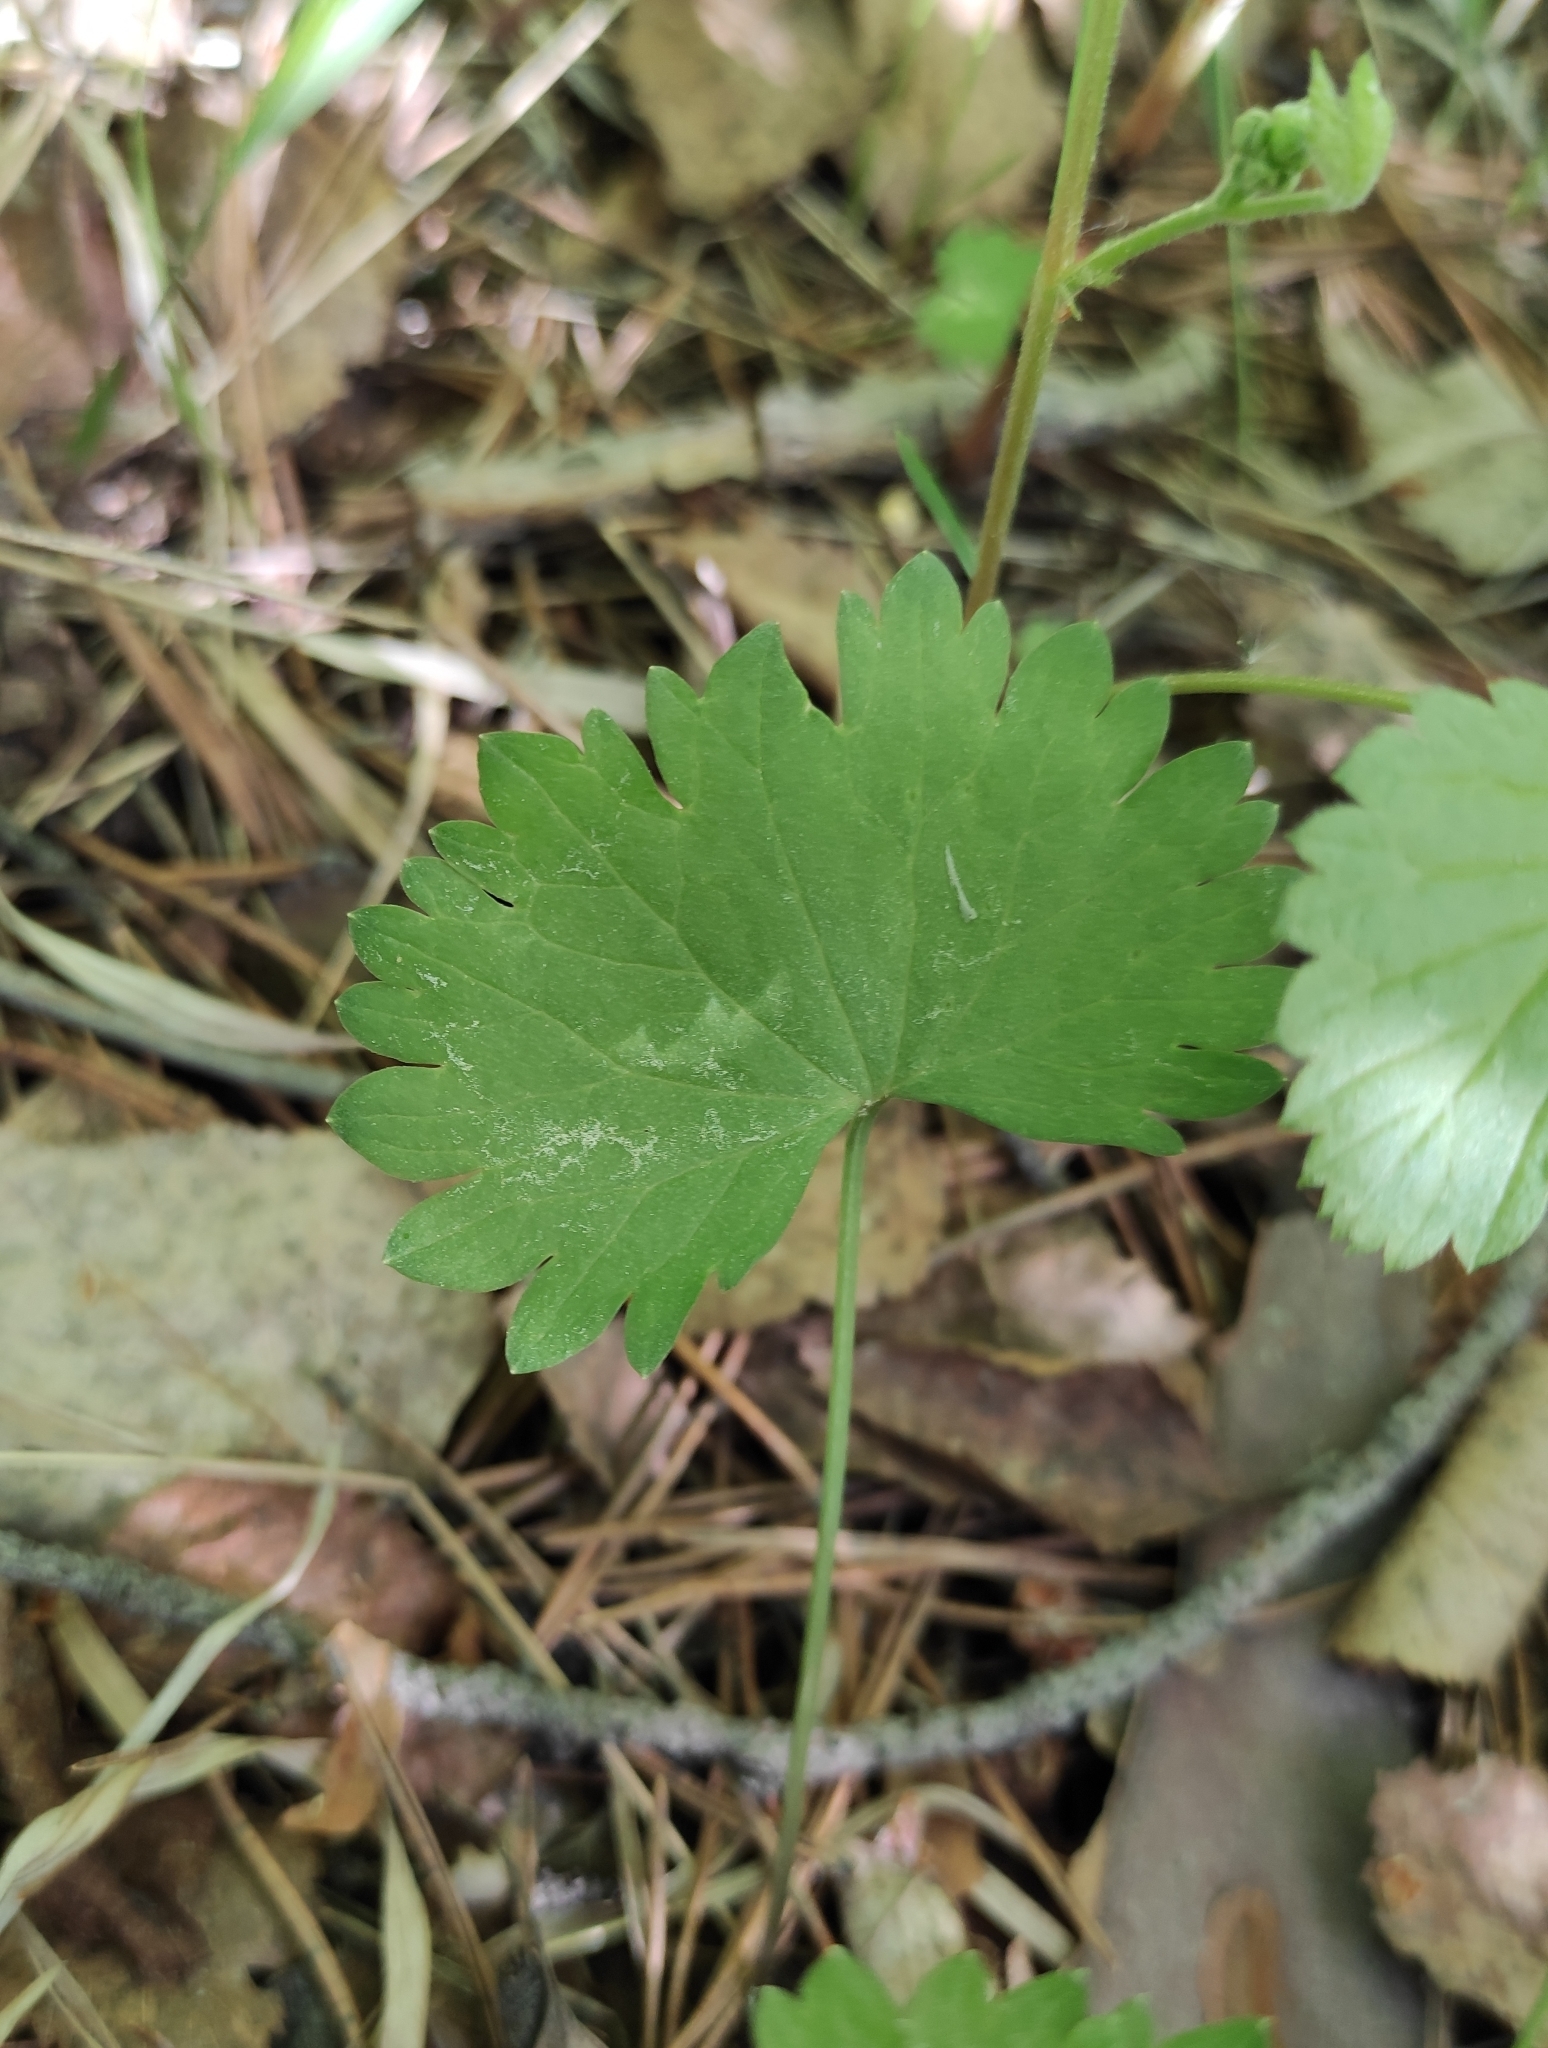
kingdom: Plantae
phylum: Tracheophyta
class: Magnoliopsida
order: Malpighiales
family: Violaceae
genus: Viola
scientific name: Viola uniflora
